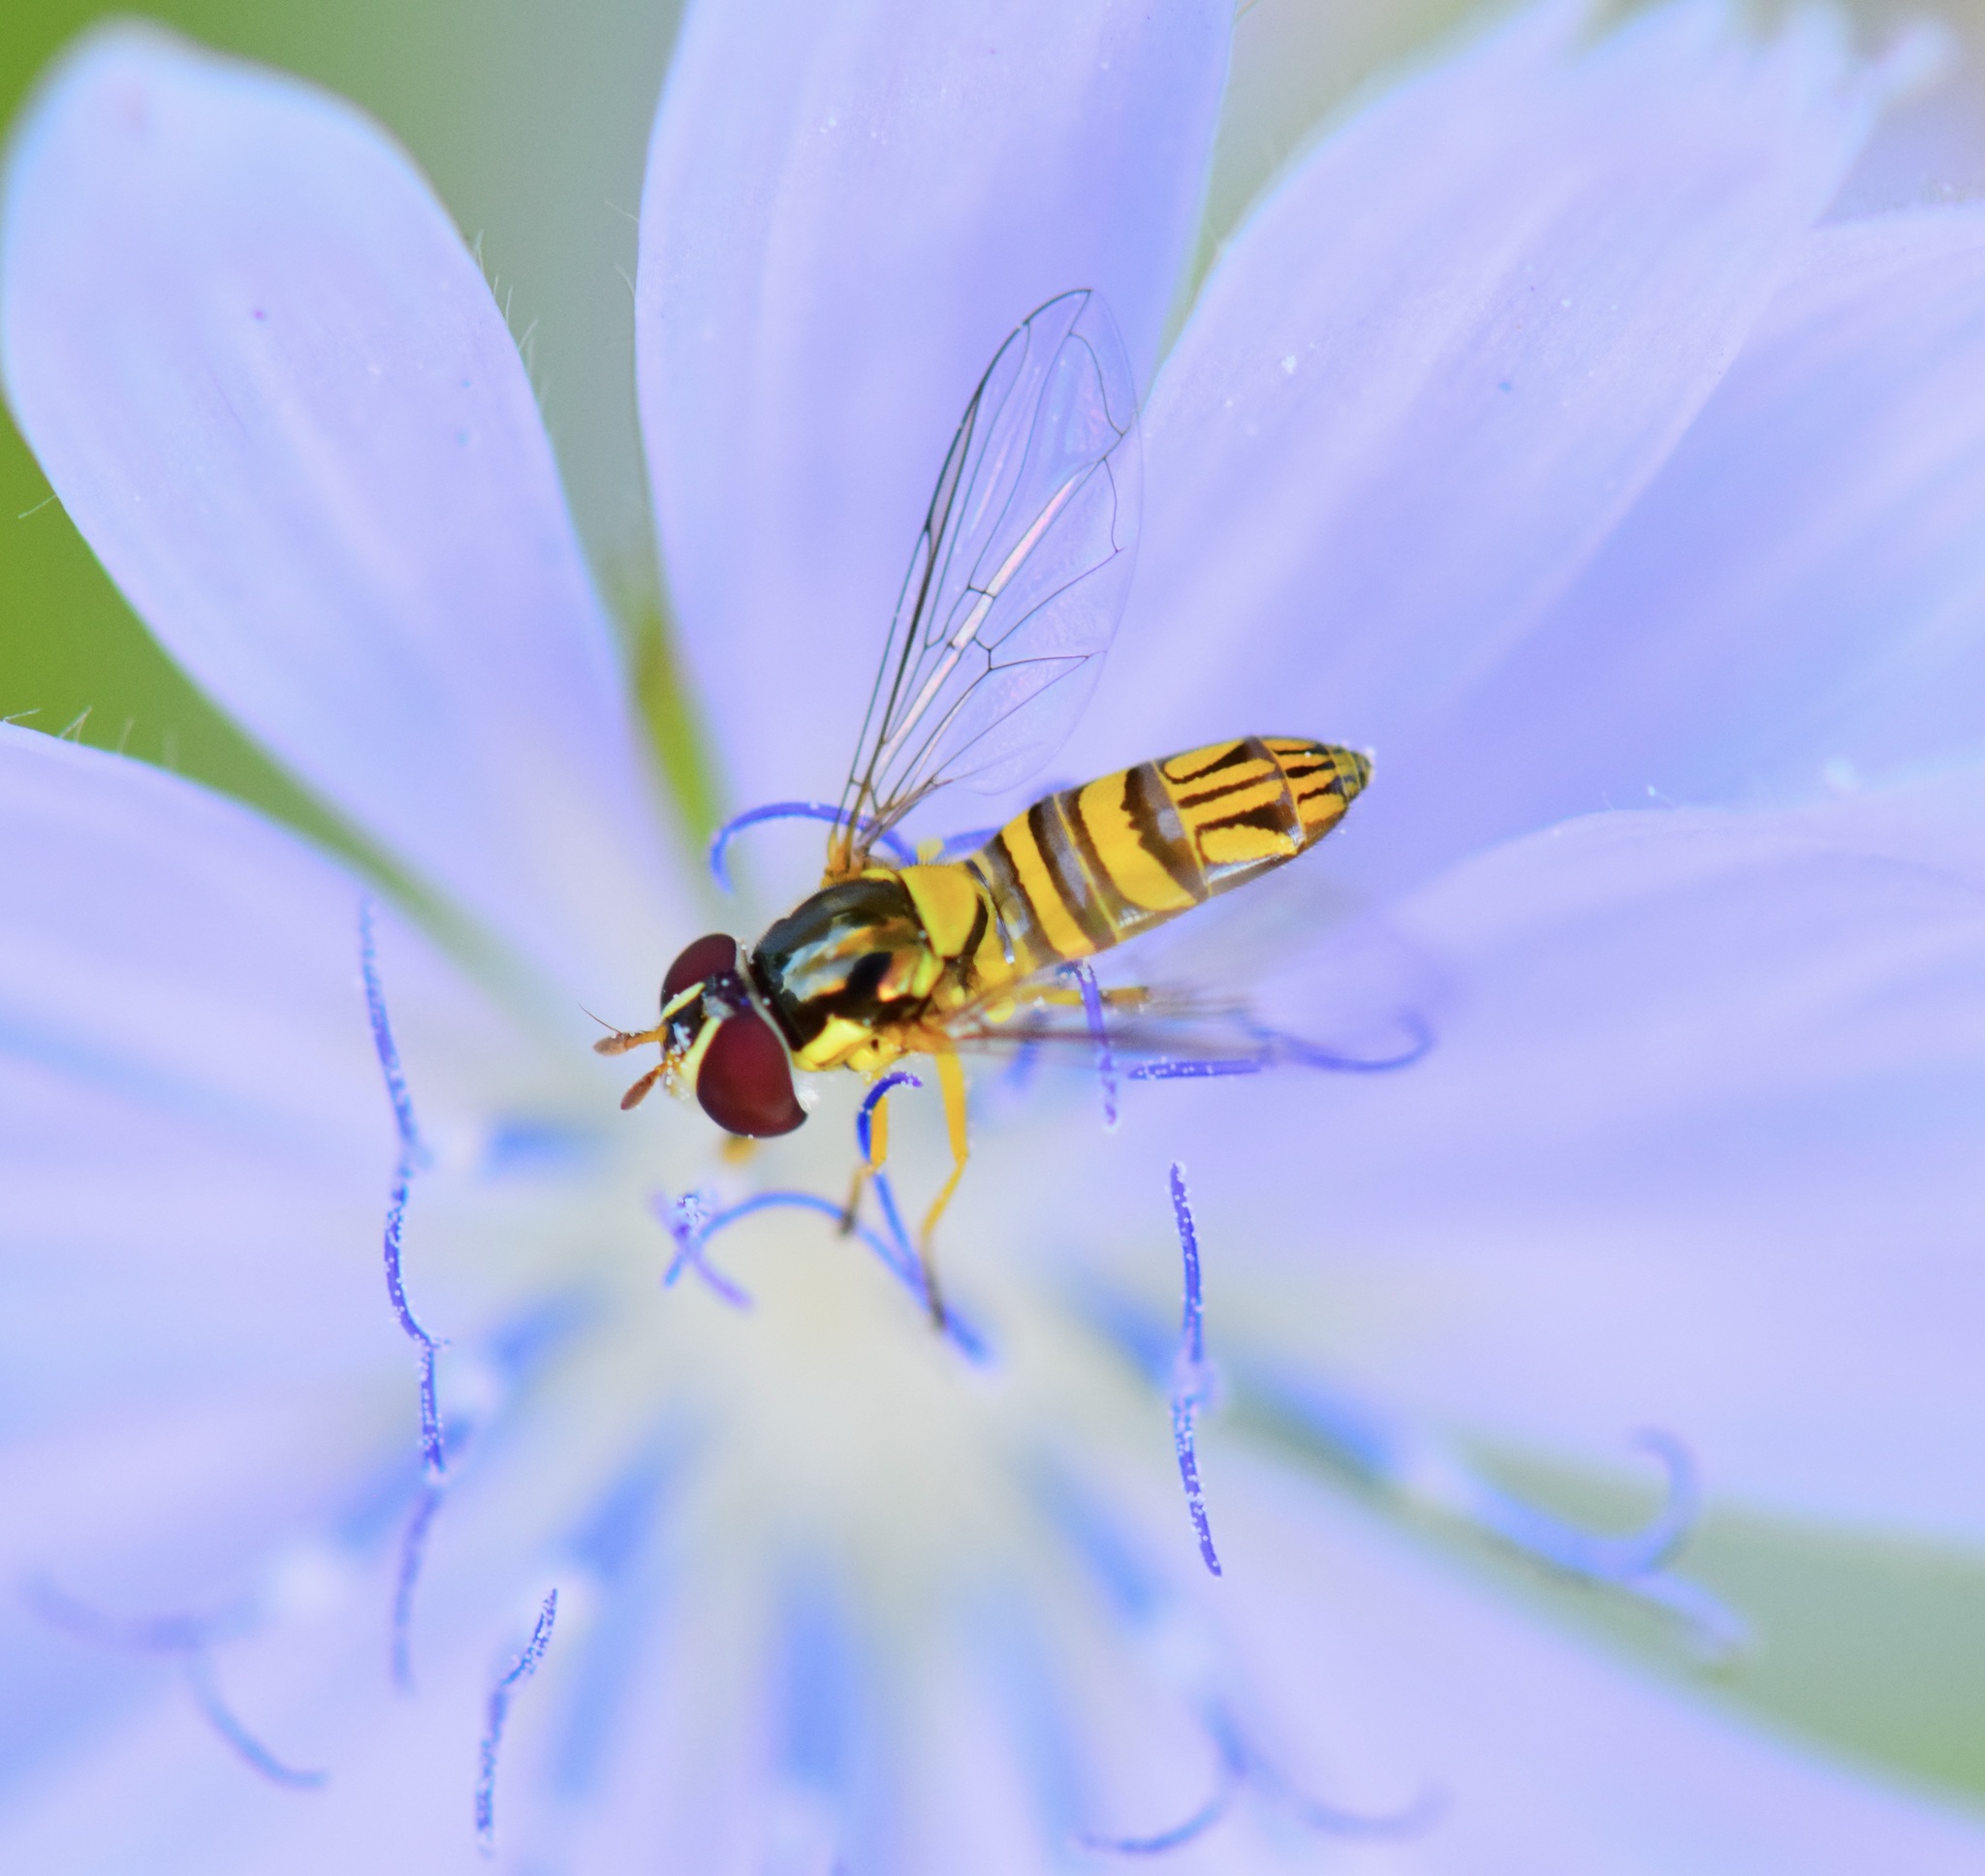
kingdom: Animalia
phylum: Arthropoda
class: Insecta
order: Diptera
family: Syrphidae
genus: Allograpta
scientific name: Allograpta obliqua
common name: Common oblique syrphid
